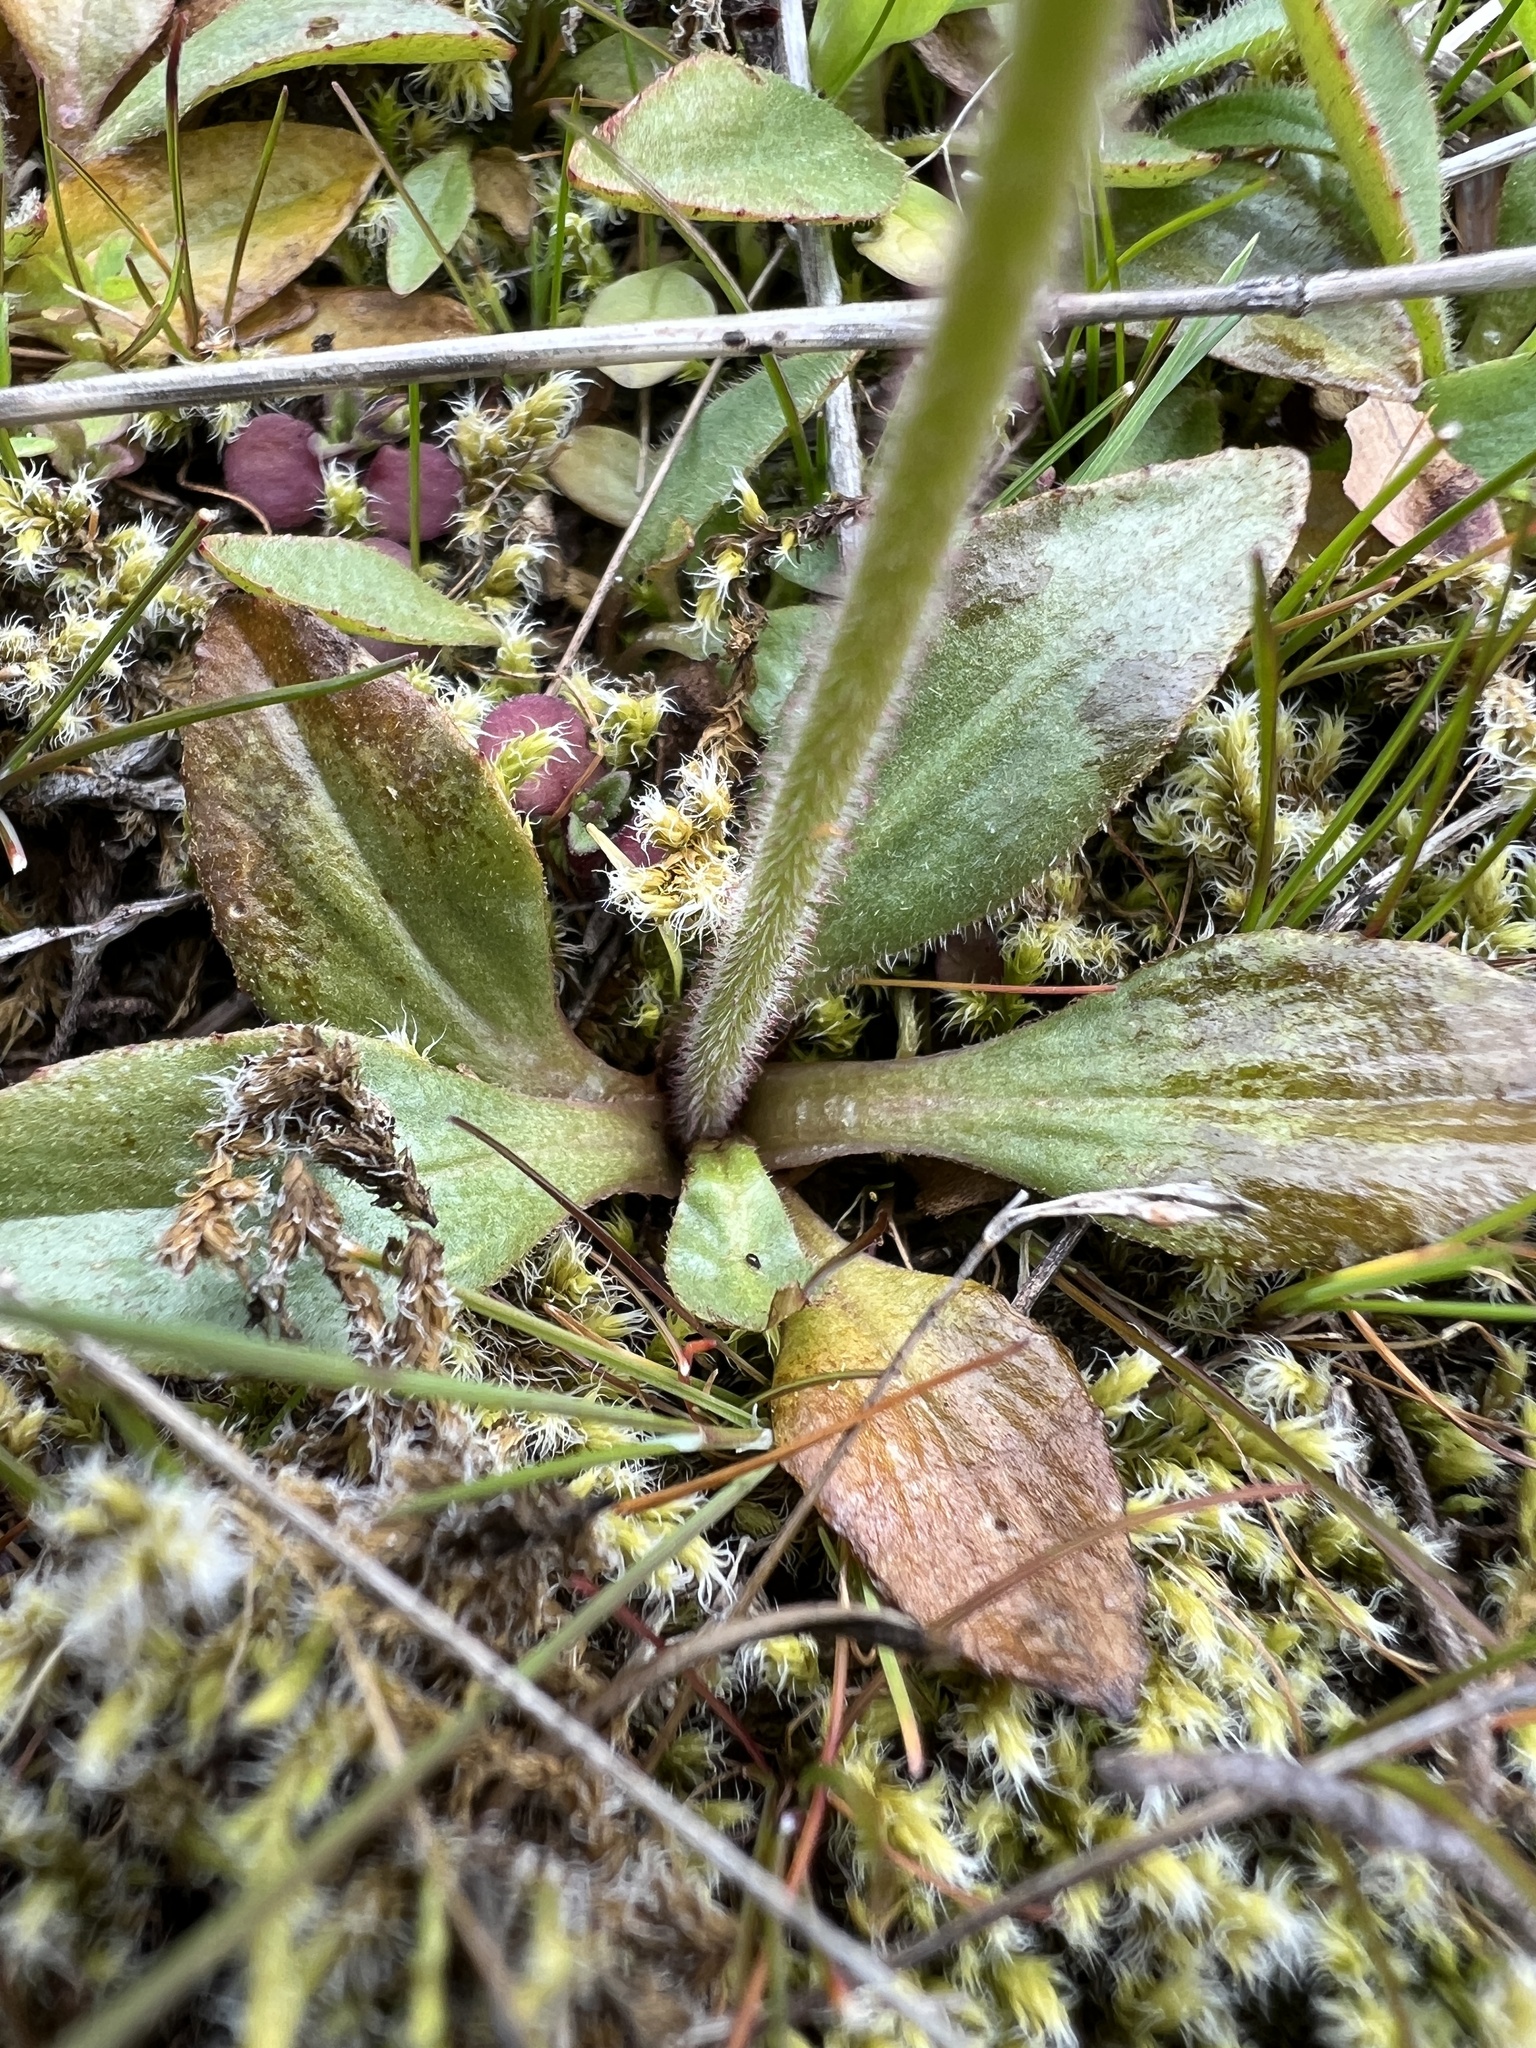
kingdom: Plantae
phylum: Tracheophyta
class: Magnoliopsida
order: Saxifragales
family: Saxifragaceae
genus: Micranthes
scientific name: Micranthes integrifolia
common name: Wholeleaf saxifrage
